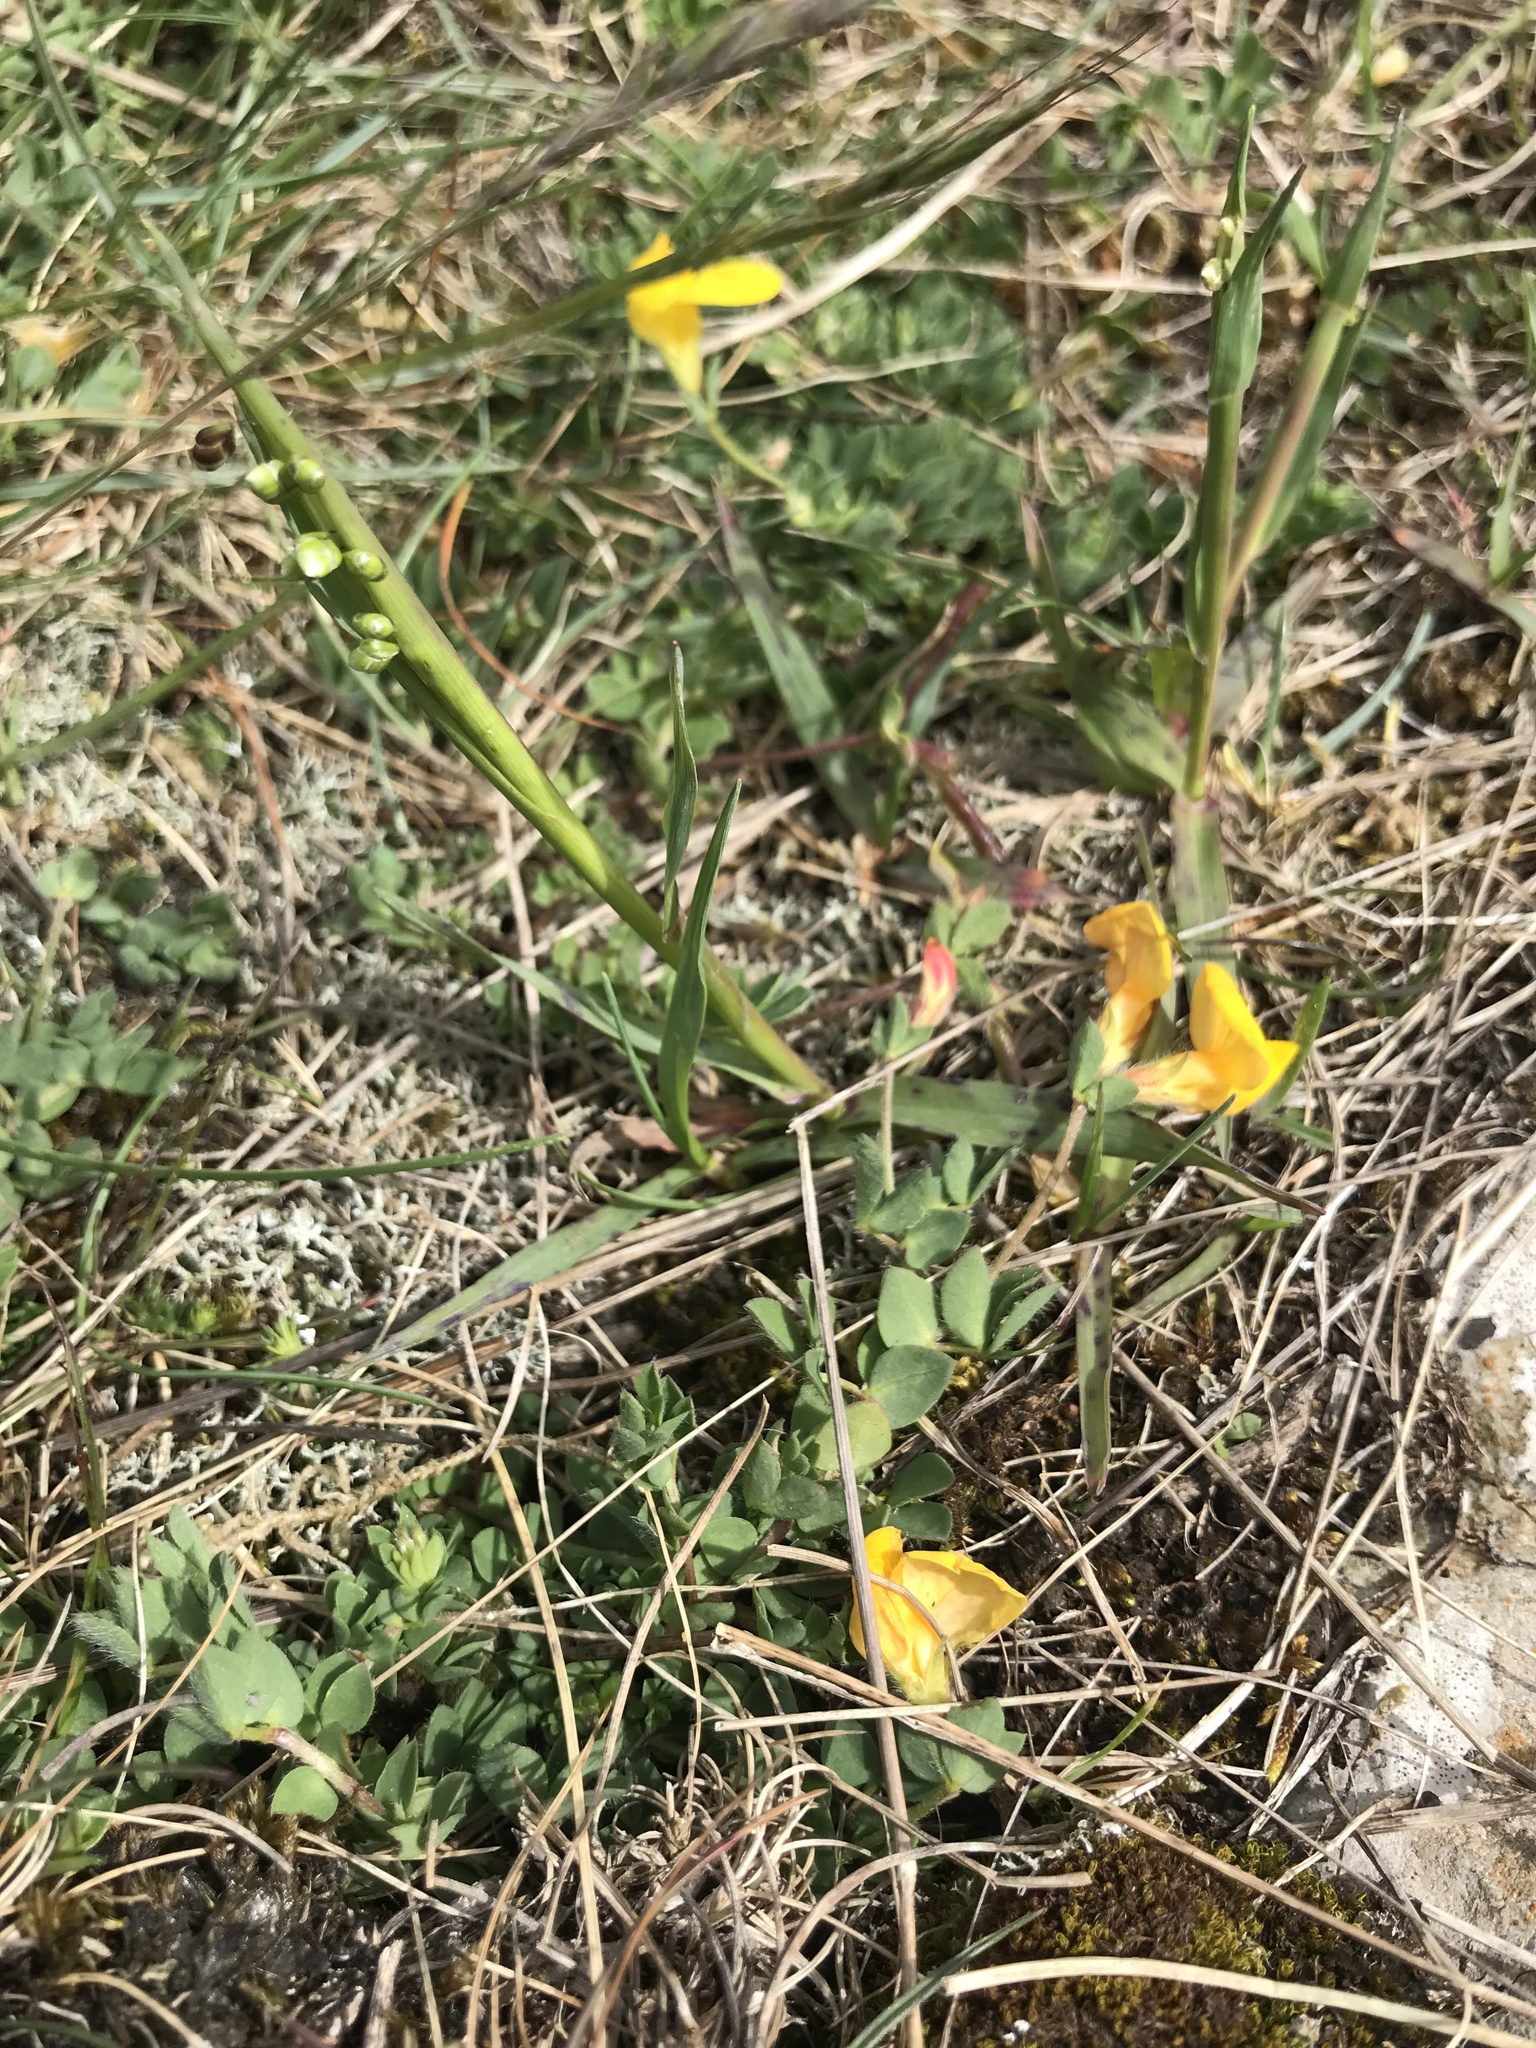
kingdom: Plantae
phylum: Tracheophyta
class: Magnoliopsida
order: Fabales
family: Fabaceae
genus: Lotus
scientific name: Lotus corniculatus
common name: Common bird's-foot-trefoil
